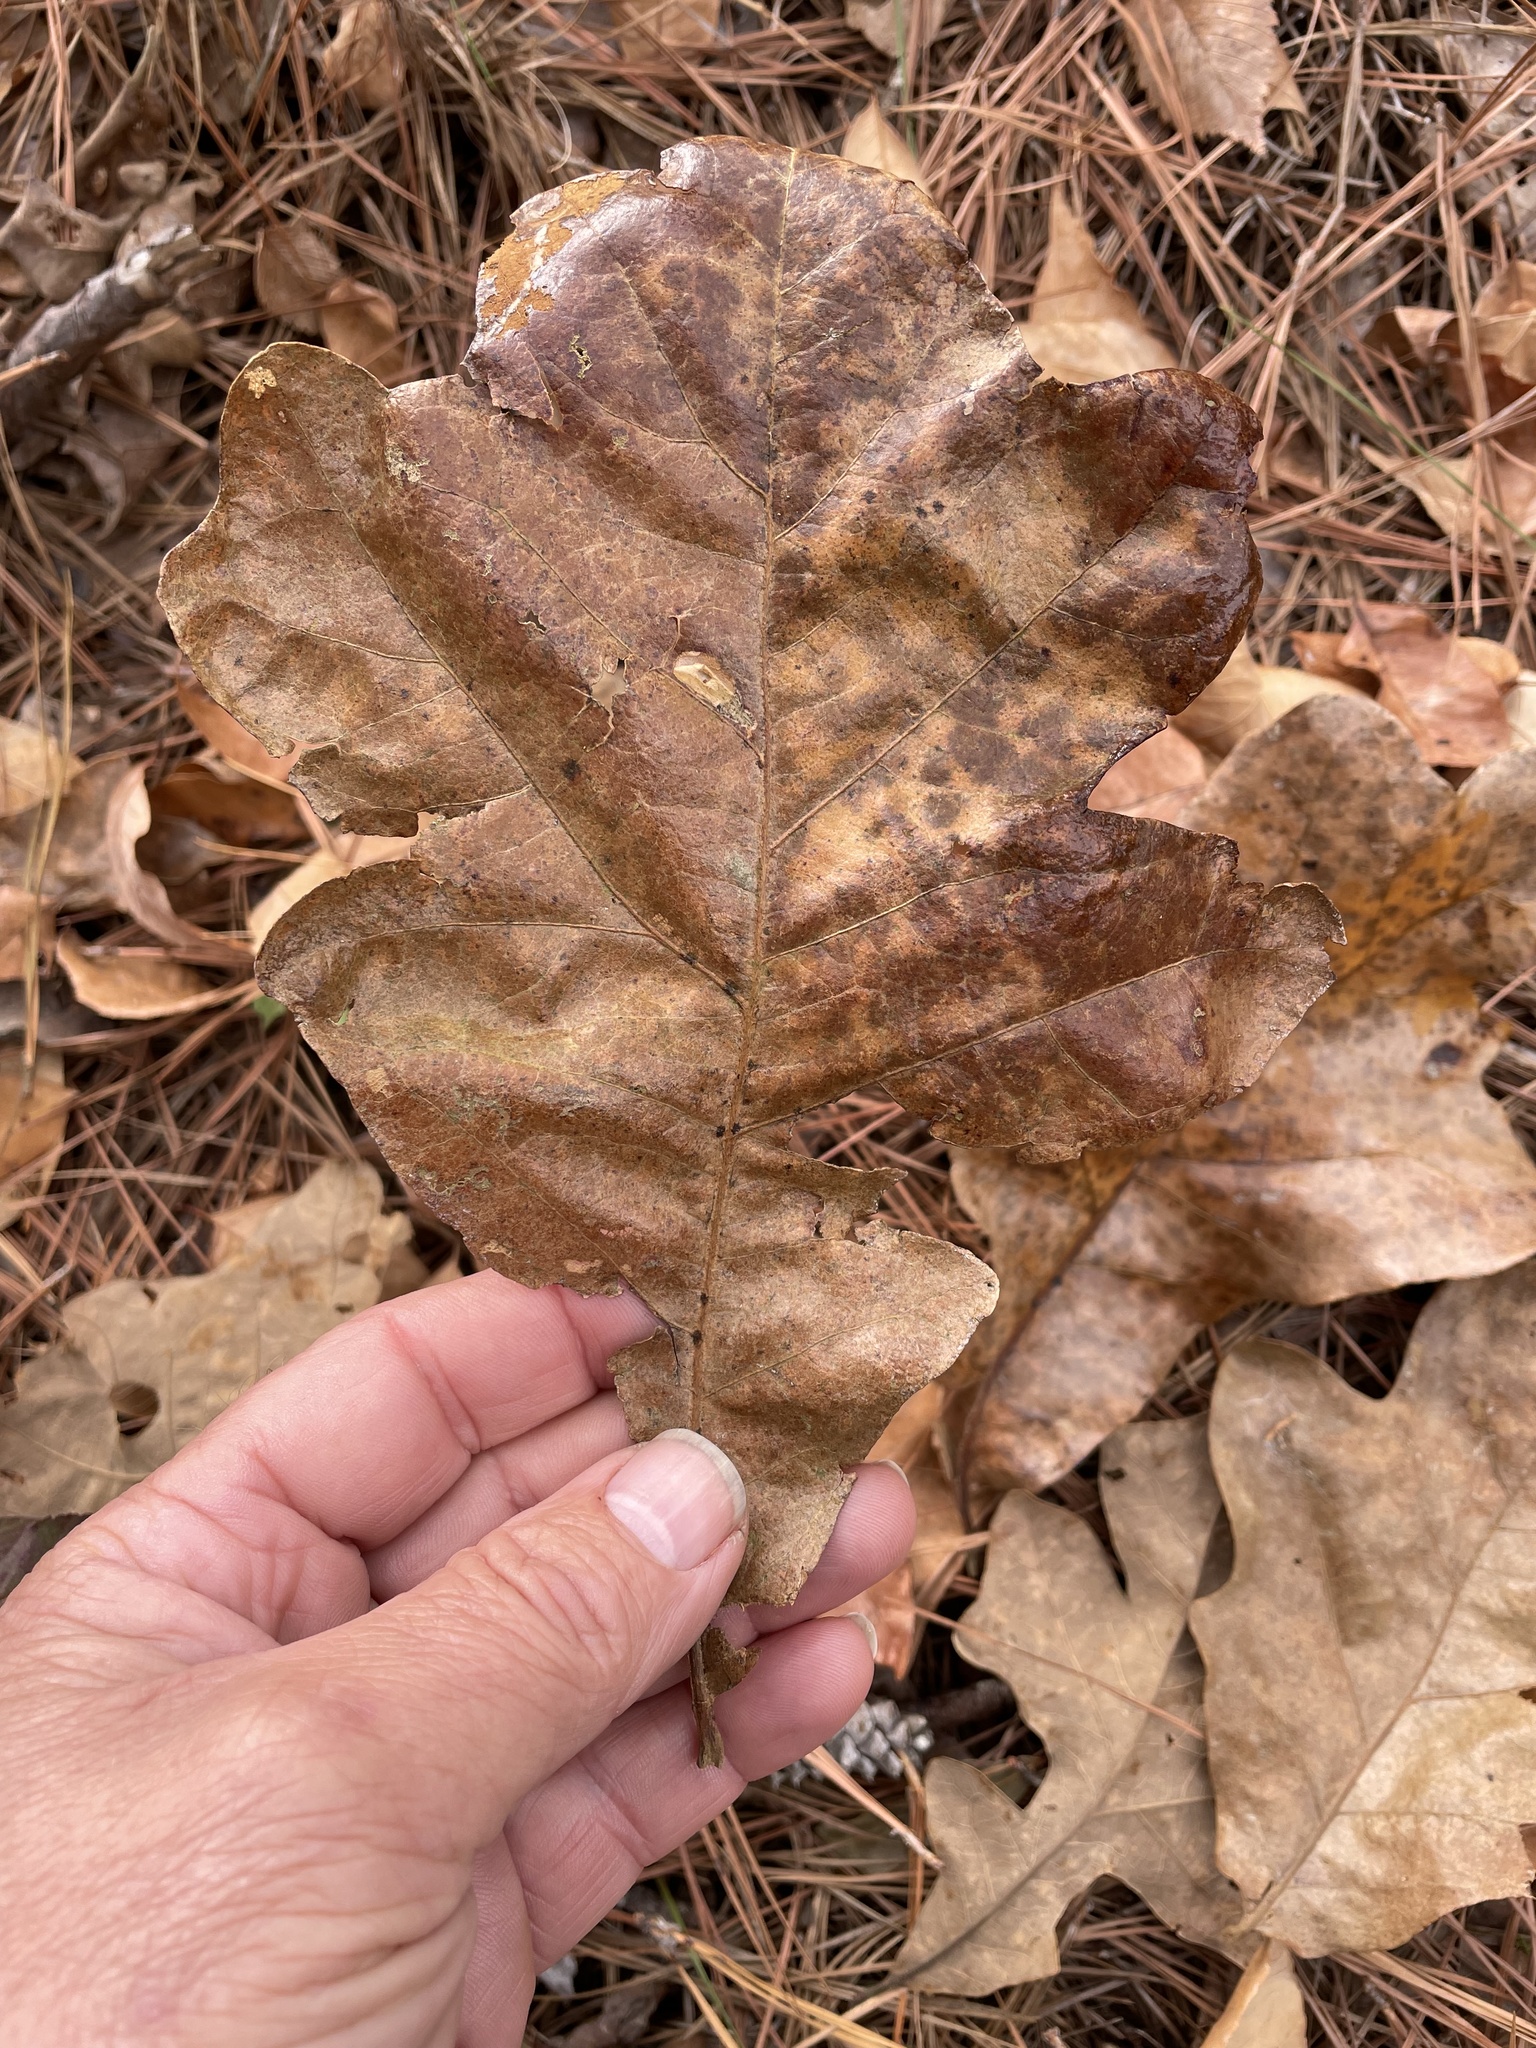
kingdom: Plantae
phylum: Tracheophyta
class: Magnoliopsida
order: Fagales
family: Fagaceae
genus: Quercus
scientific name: Quercus stellata
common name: Post oak
